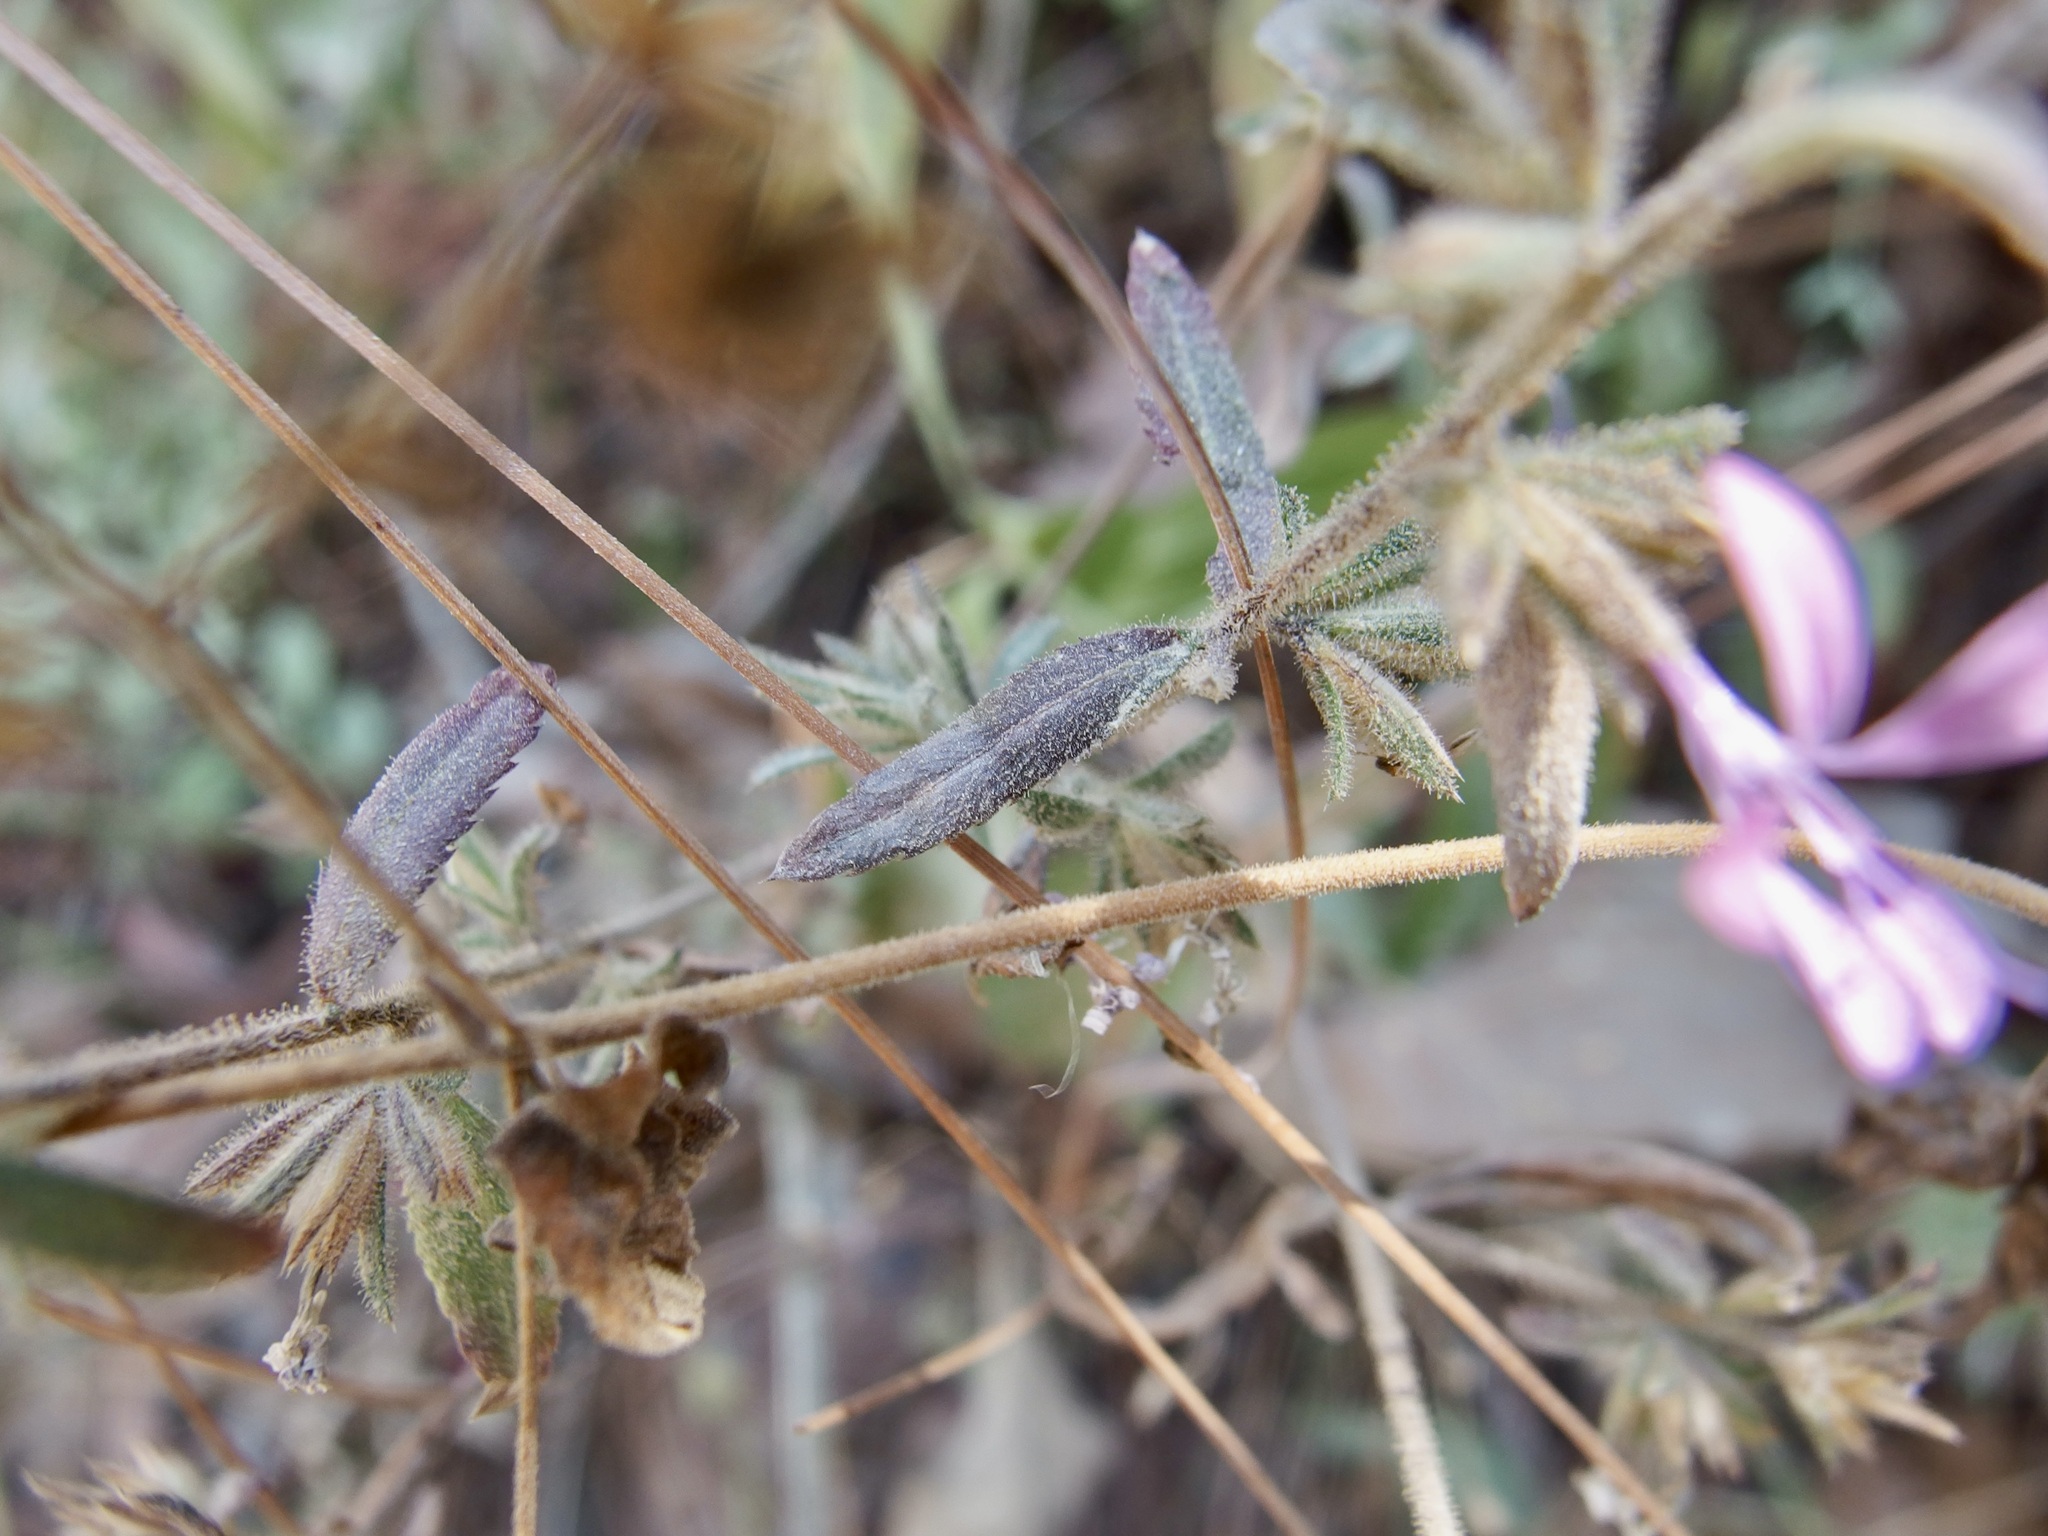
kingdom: Plantae
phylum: Tracheophyta
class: Magnoliopsida
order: Ericales
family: Polemoniaceae
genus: Loeselia
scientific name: Loeselia glandulosa
